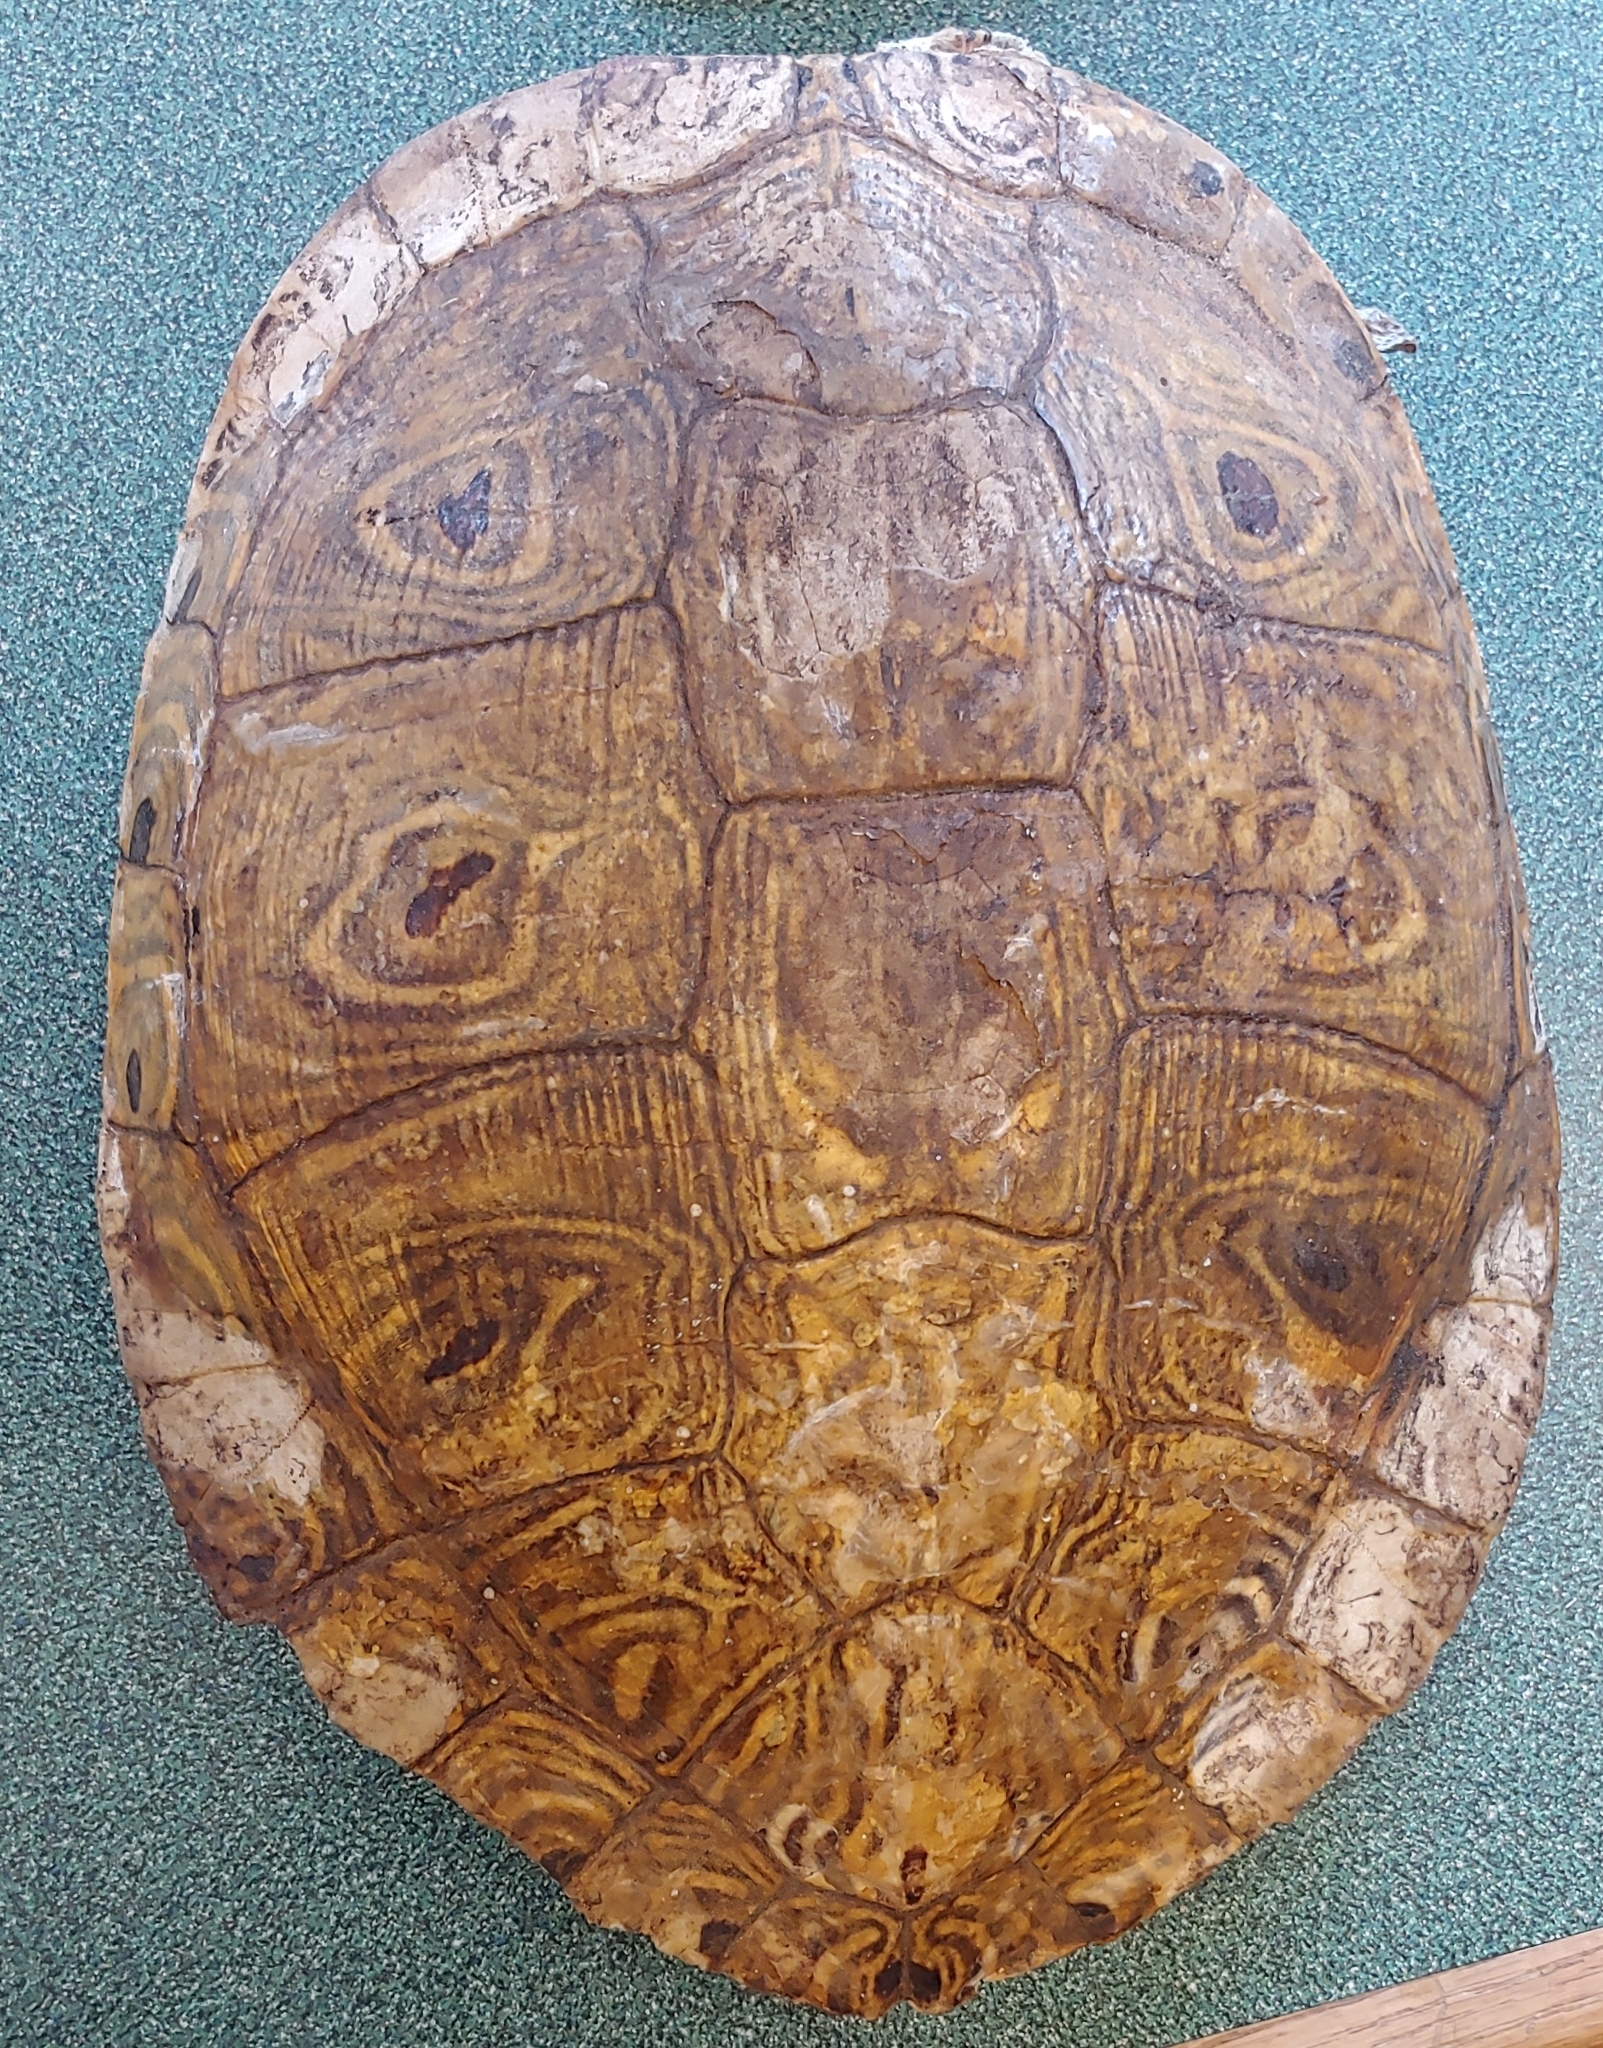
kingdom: Animalia
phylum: Chordata
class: Testudines
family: Emydidae
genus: Trachemys
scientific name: Trachemys scripta
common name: Slider
